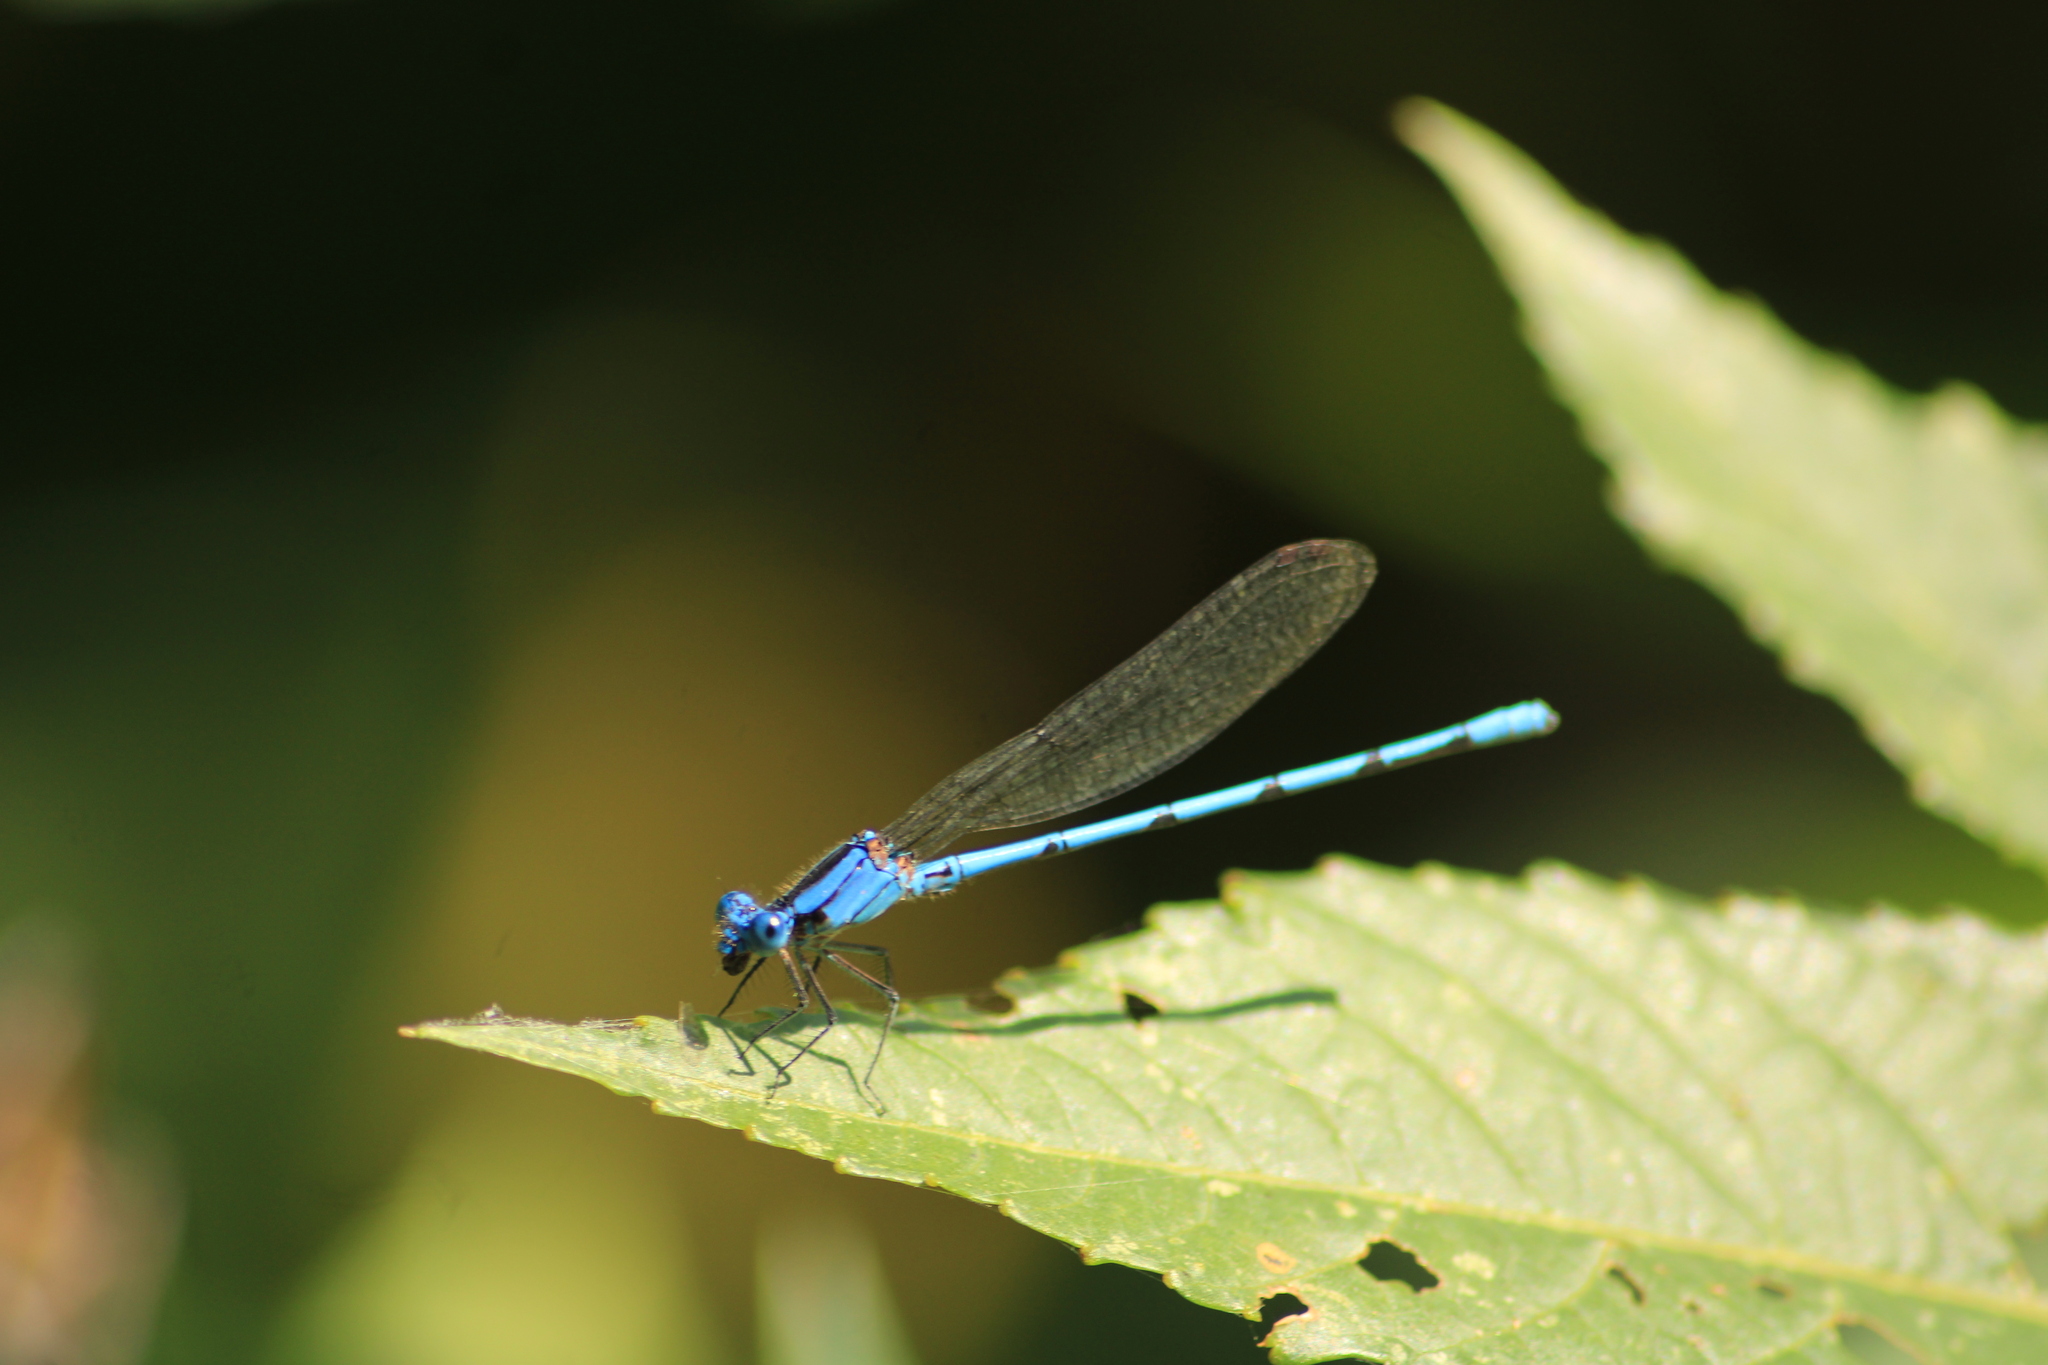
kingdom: Animalia
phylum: Arthropoda
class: Insecta
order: Odonata
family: Coenagrionidae
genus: Argia
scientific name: Argia lacrimans
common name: Sierra madre dancer
